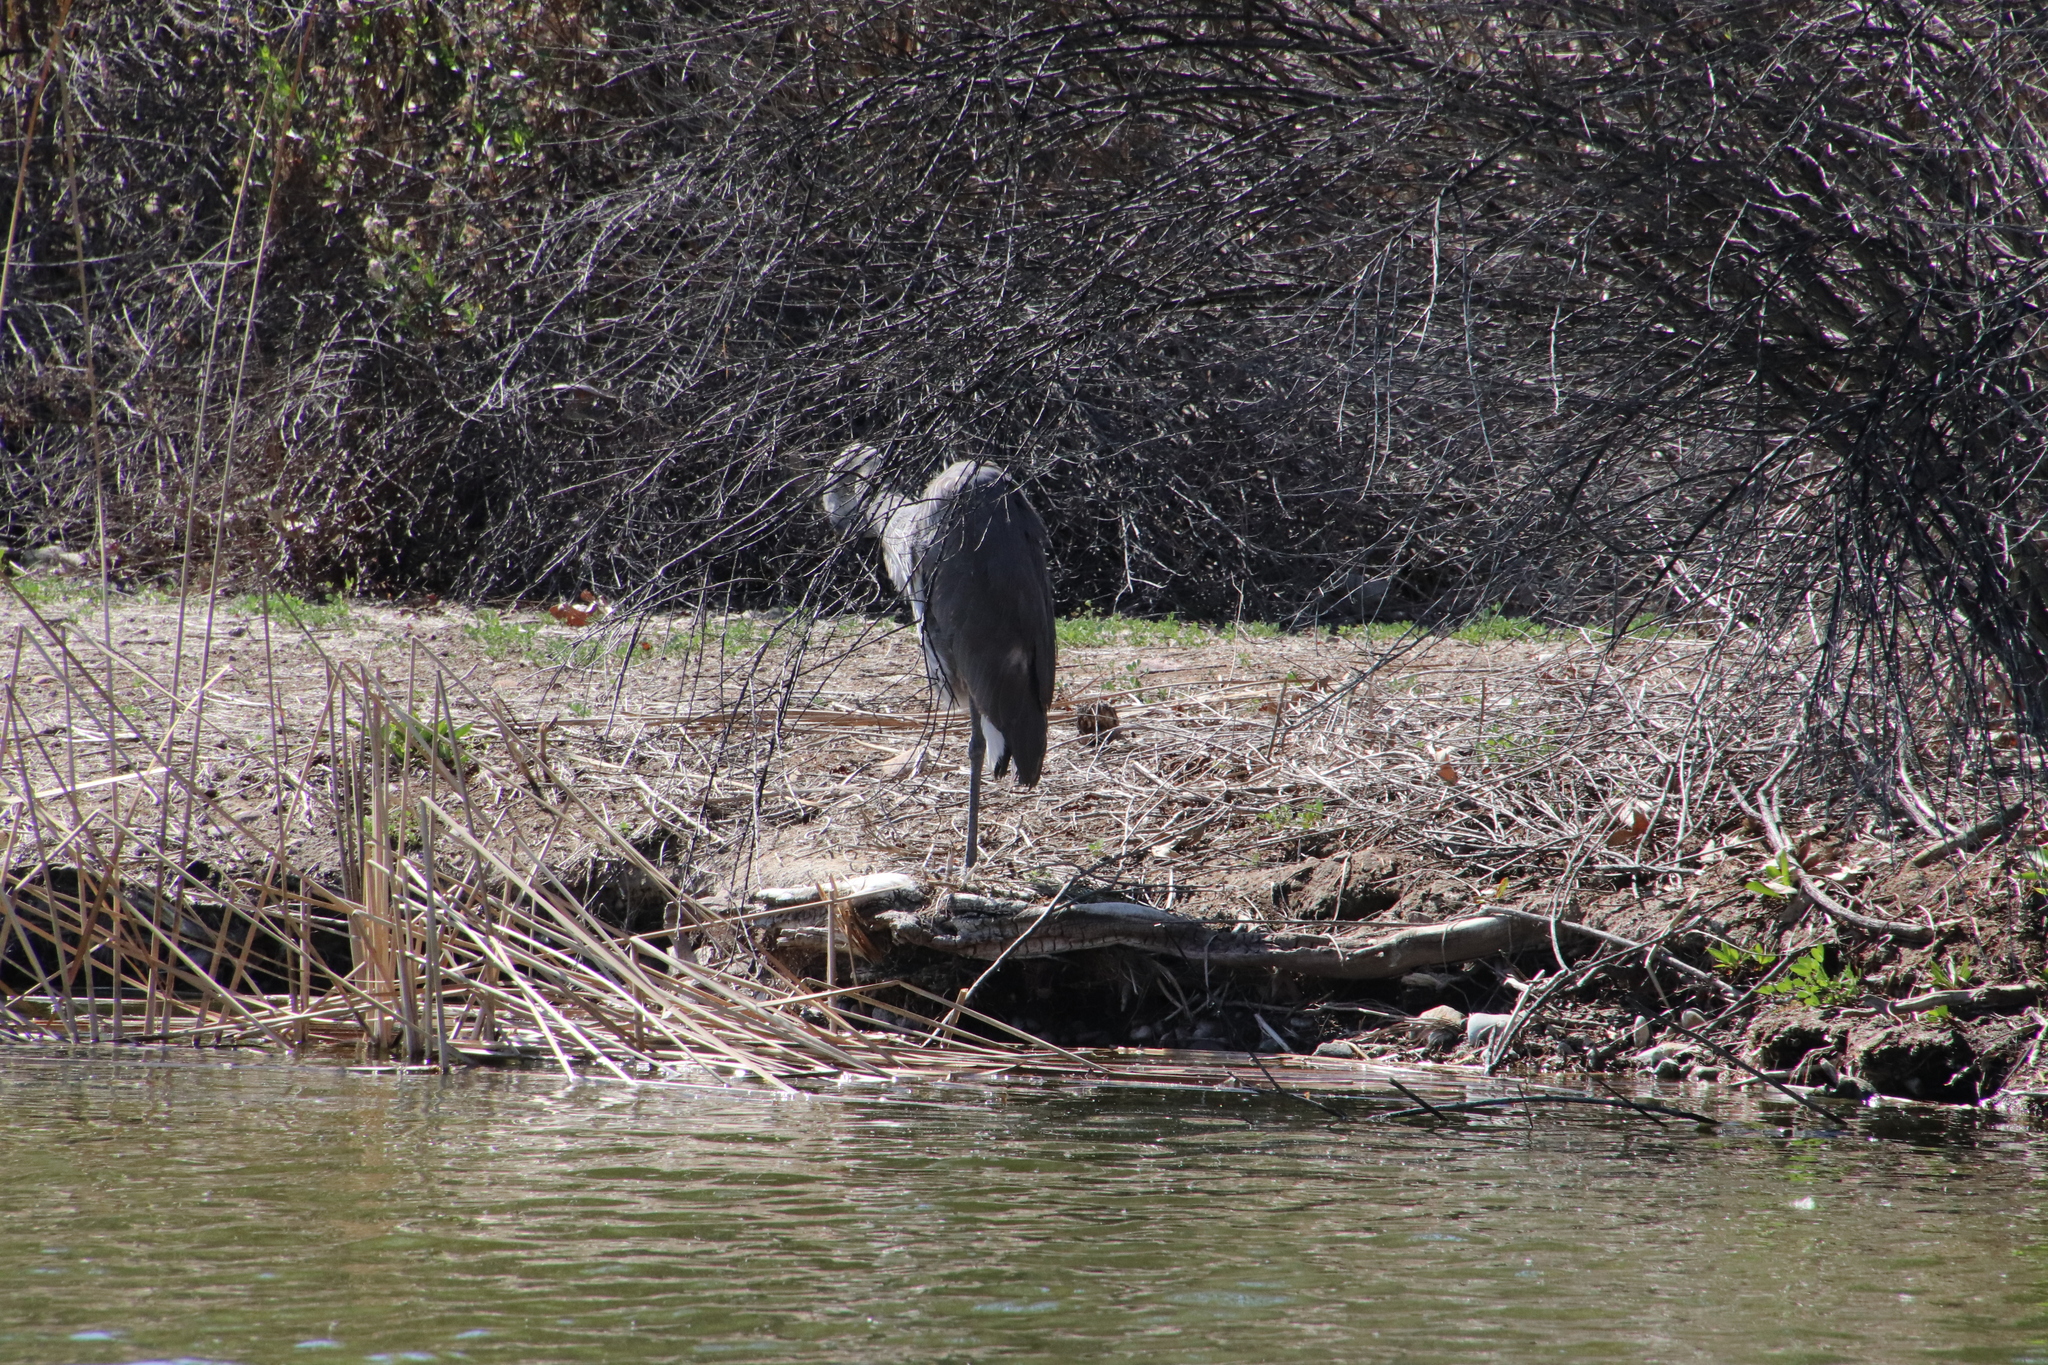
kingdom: Animalia
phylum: Chordata
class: Aves
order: Pelecaniformes
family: Ardeidae
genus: Ardea
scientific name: Ardea herodias
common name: Great blue heron
